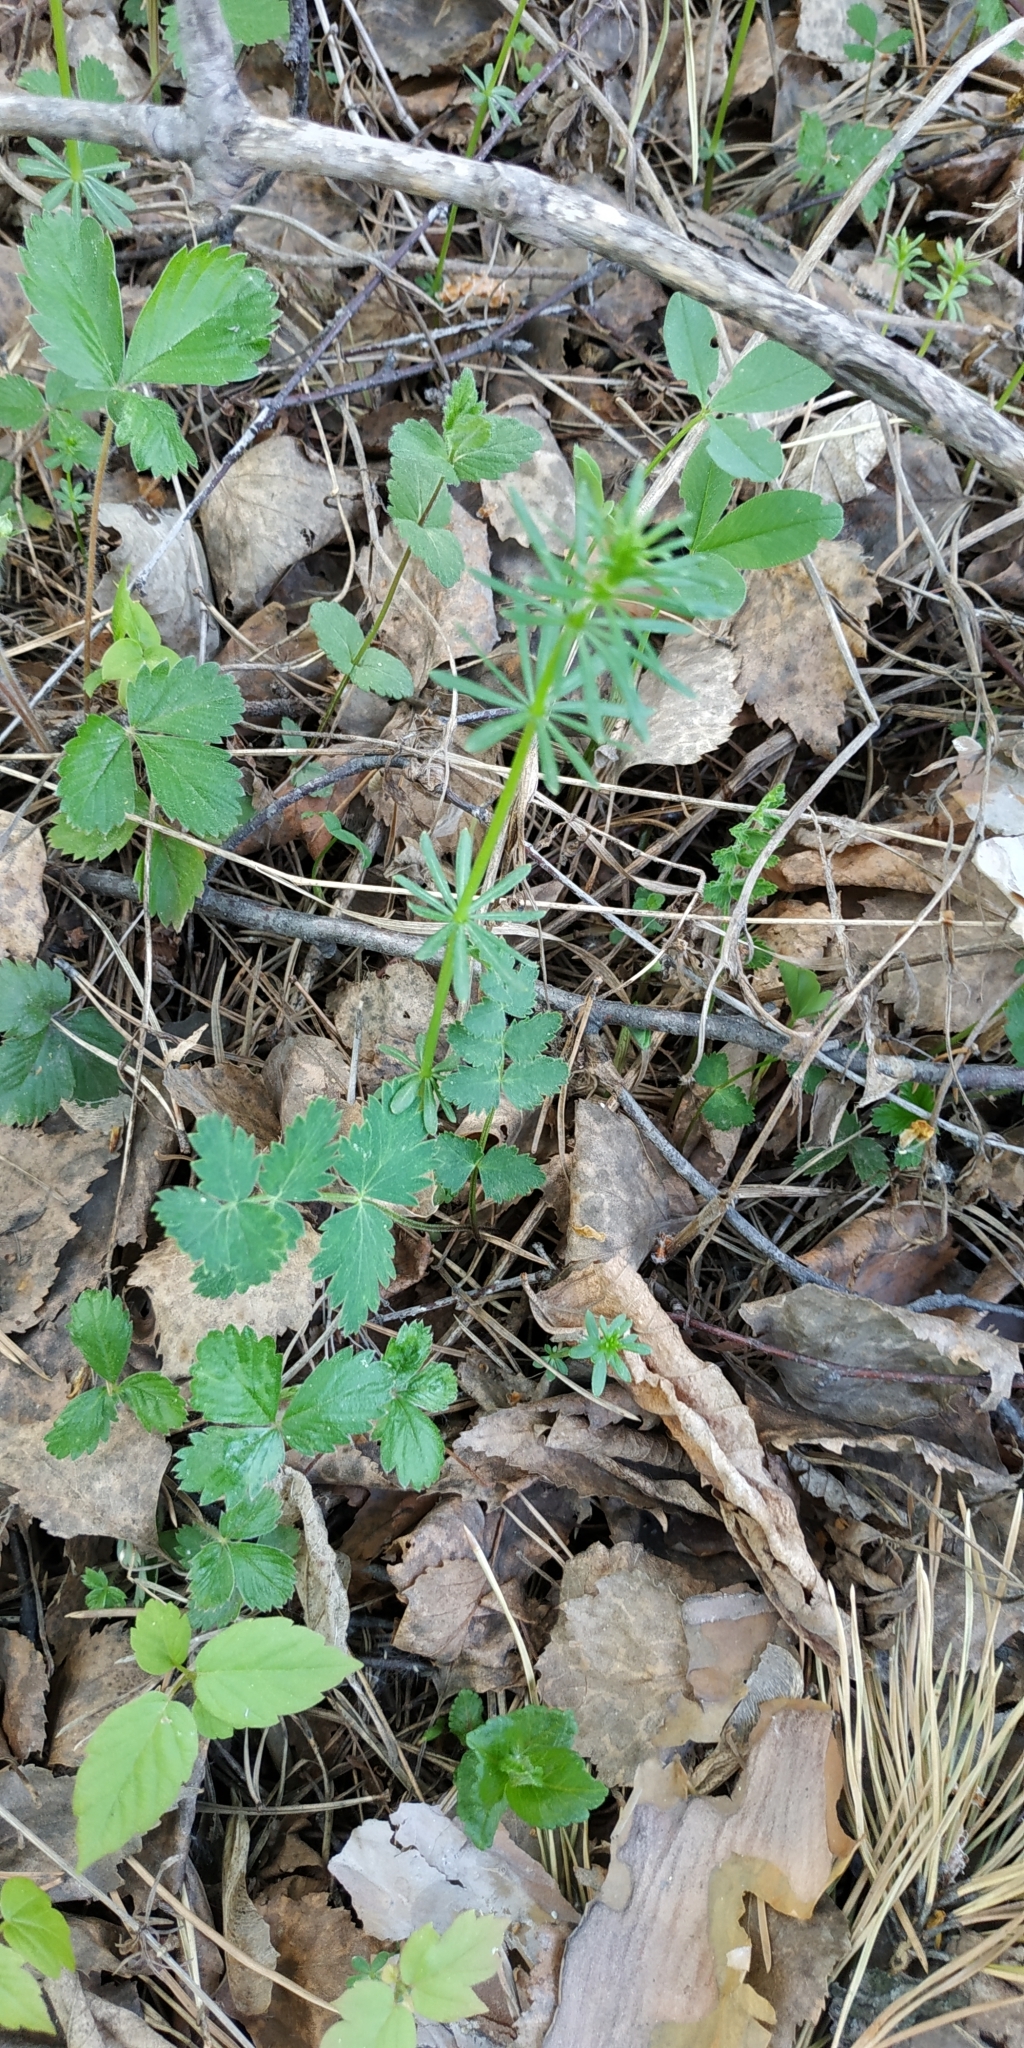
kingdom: Plantae
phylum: Tracheophyta
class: Magnoliopsida
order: Gentianales
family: Rubiaceae
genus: Galium
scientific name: Galium mollugo
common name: Hedge bedstraw
